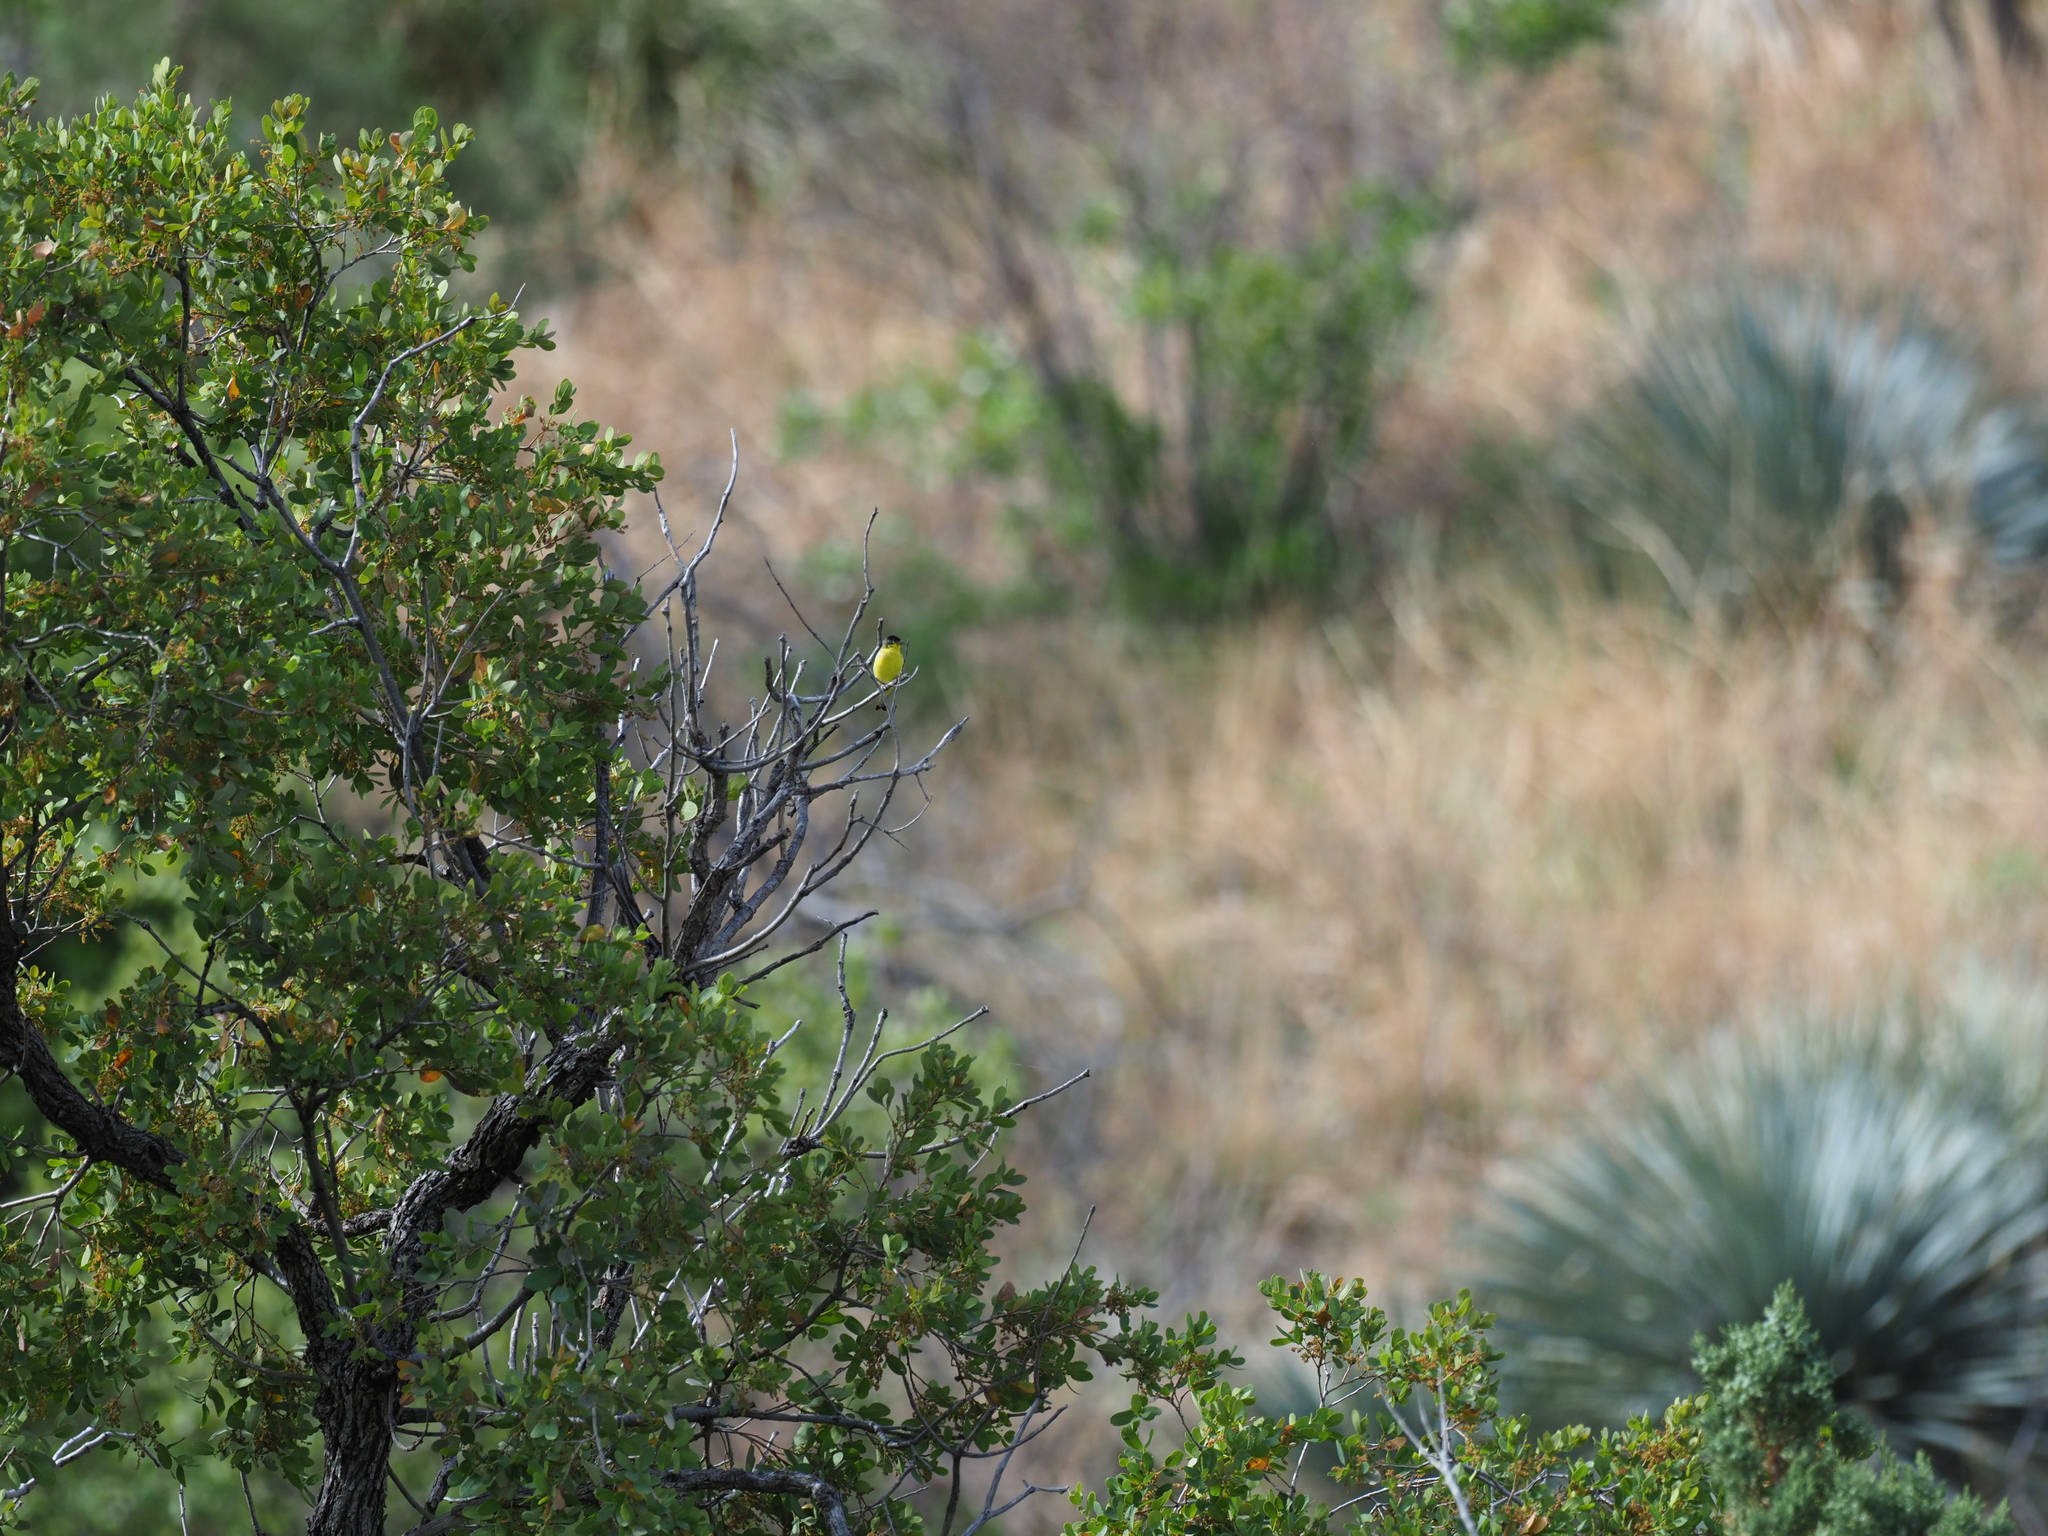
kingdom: Animalia
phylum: Chordata
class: Aves
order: Passeriformes
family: Fringillidae
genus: Spinus
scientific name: Spinus psaltria
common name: Lesser goldfinch
